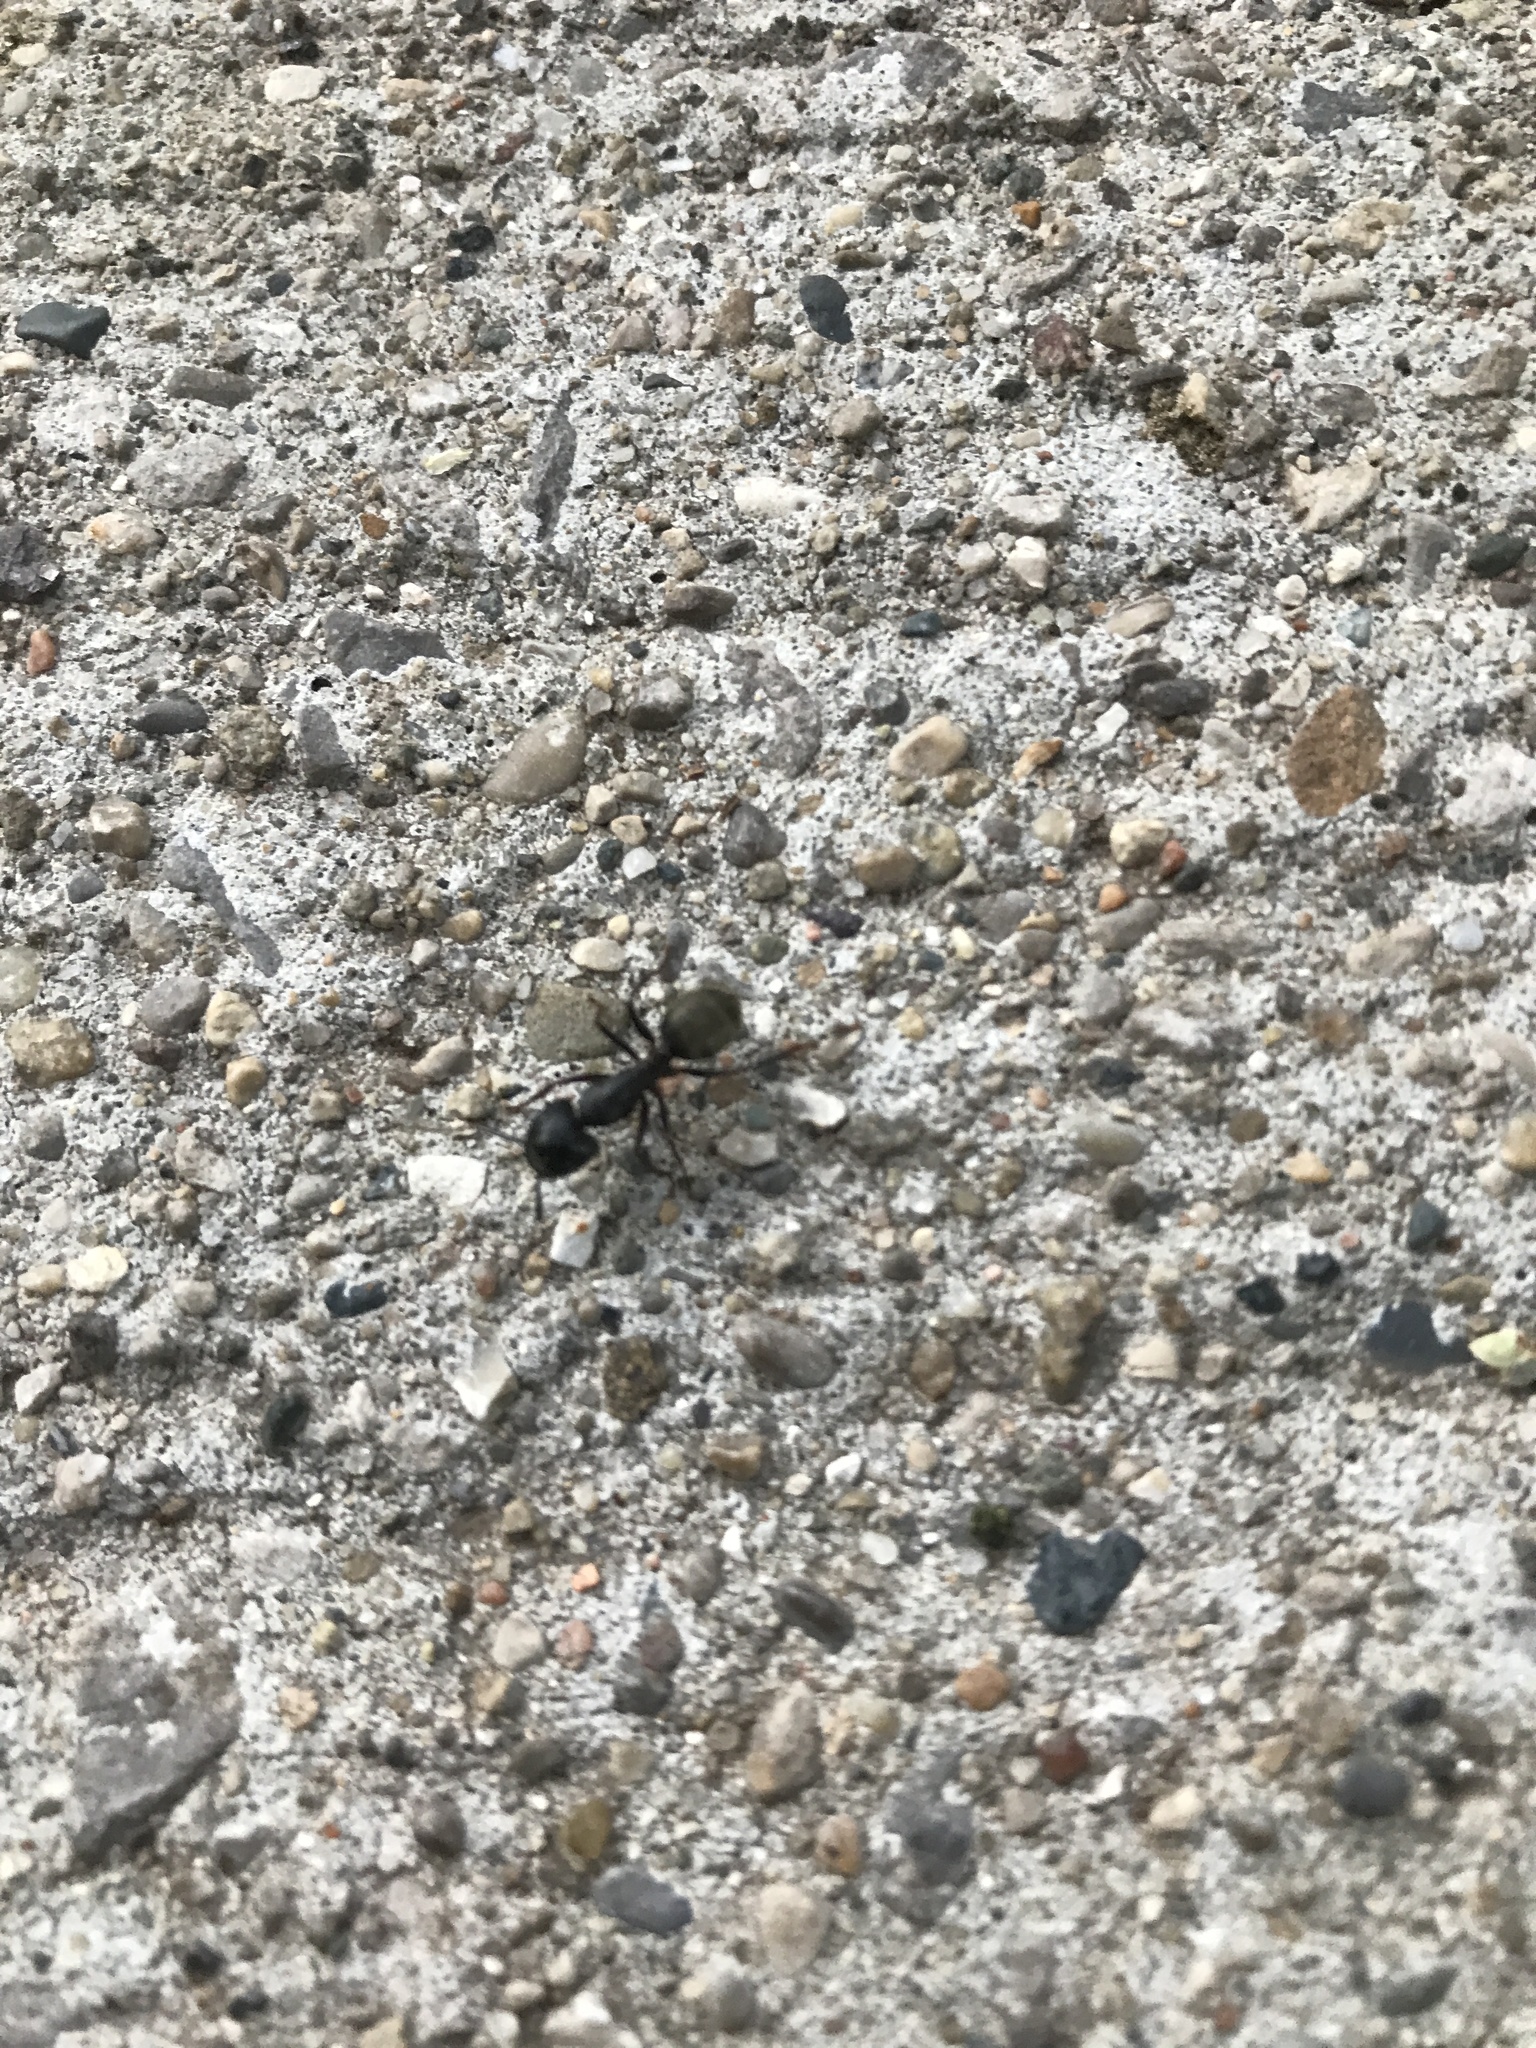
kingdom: Animalia
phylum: Arthropoda
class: Insecta
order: Hymenoptera
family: Formicidae
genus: Camponotus
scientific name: Camponotus pennsylvanicus
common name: Black carpenter ant
